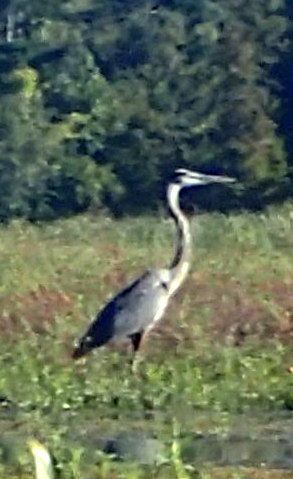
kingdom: Animalia
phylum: Chordata
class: Aves
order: Pelecaniformes
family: Ardeidae
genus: Ardea
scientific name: Ardea herodias
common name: Great blue heron
